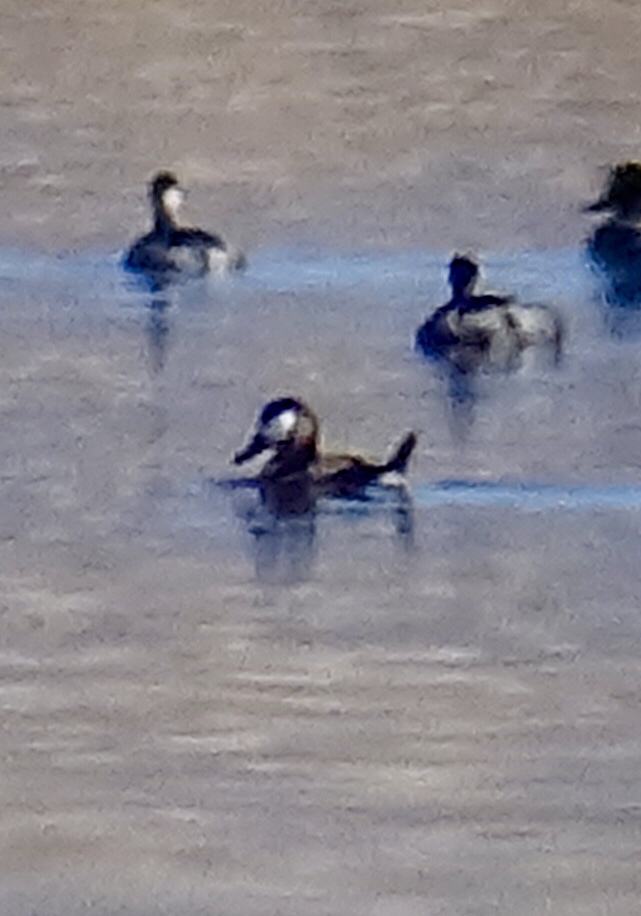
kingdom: Animalia
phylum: Chordata
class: Aves
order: Anseriformes
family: Anatidae
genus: Oxyura
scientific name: Oxyura jamaicensis
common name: Ruddy duck
